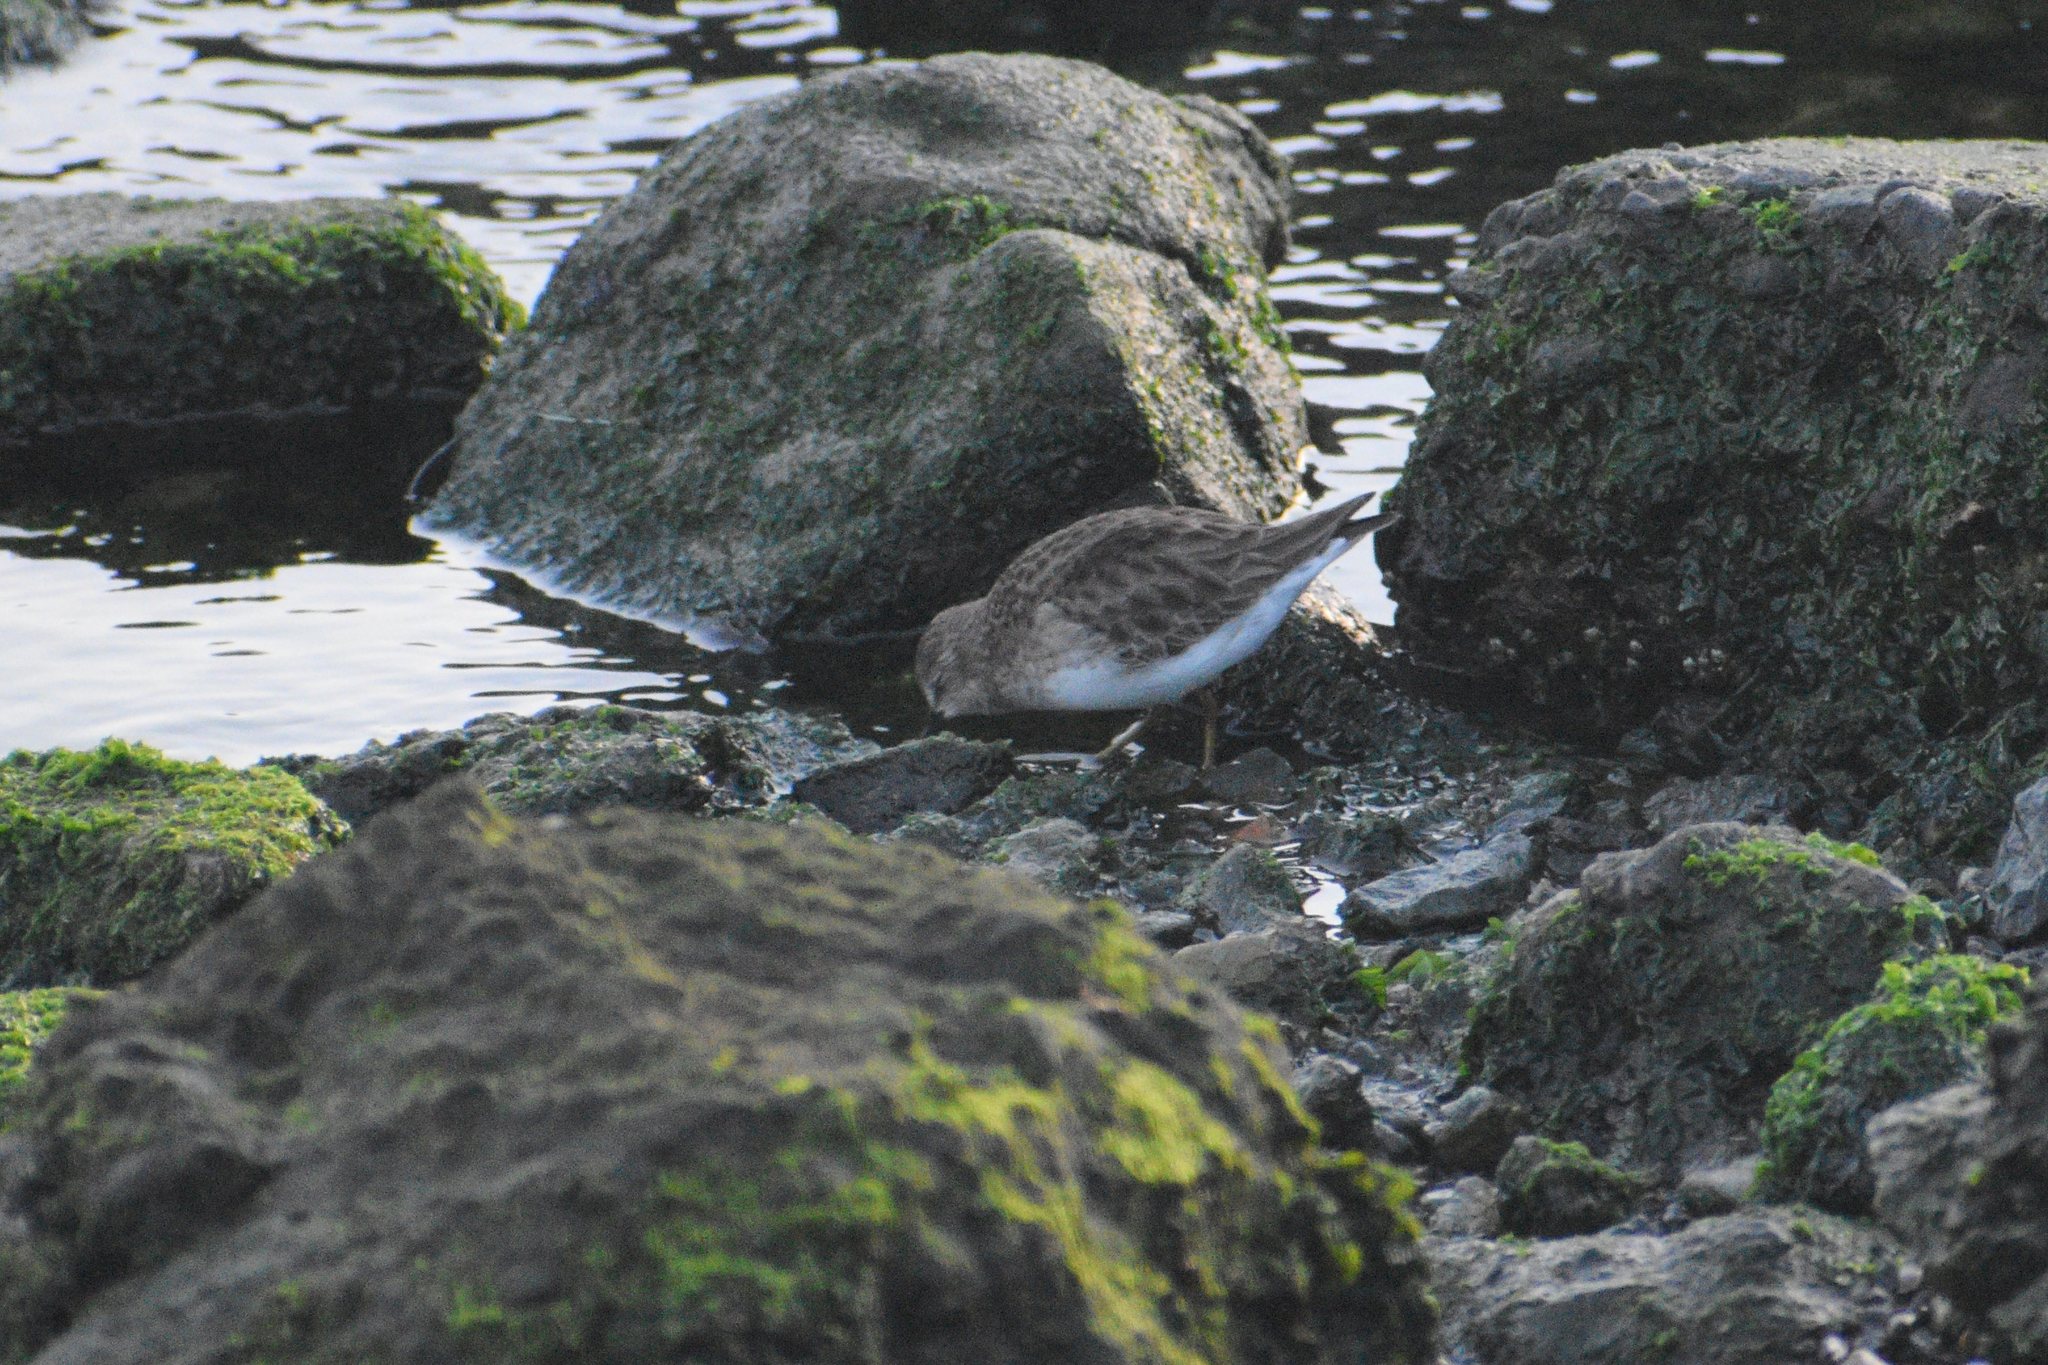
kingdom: Animalia
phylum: Chordata
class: Aves
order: Charadriiformes
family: Scolopacidae
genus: Calidris
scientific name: Calidris minutilla
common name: Least sandpiper
